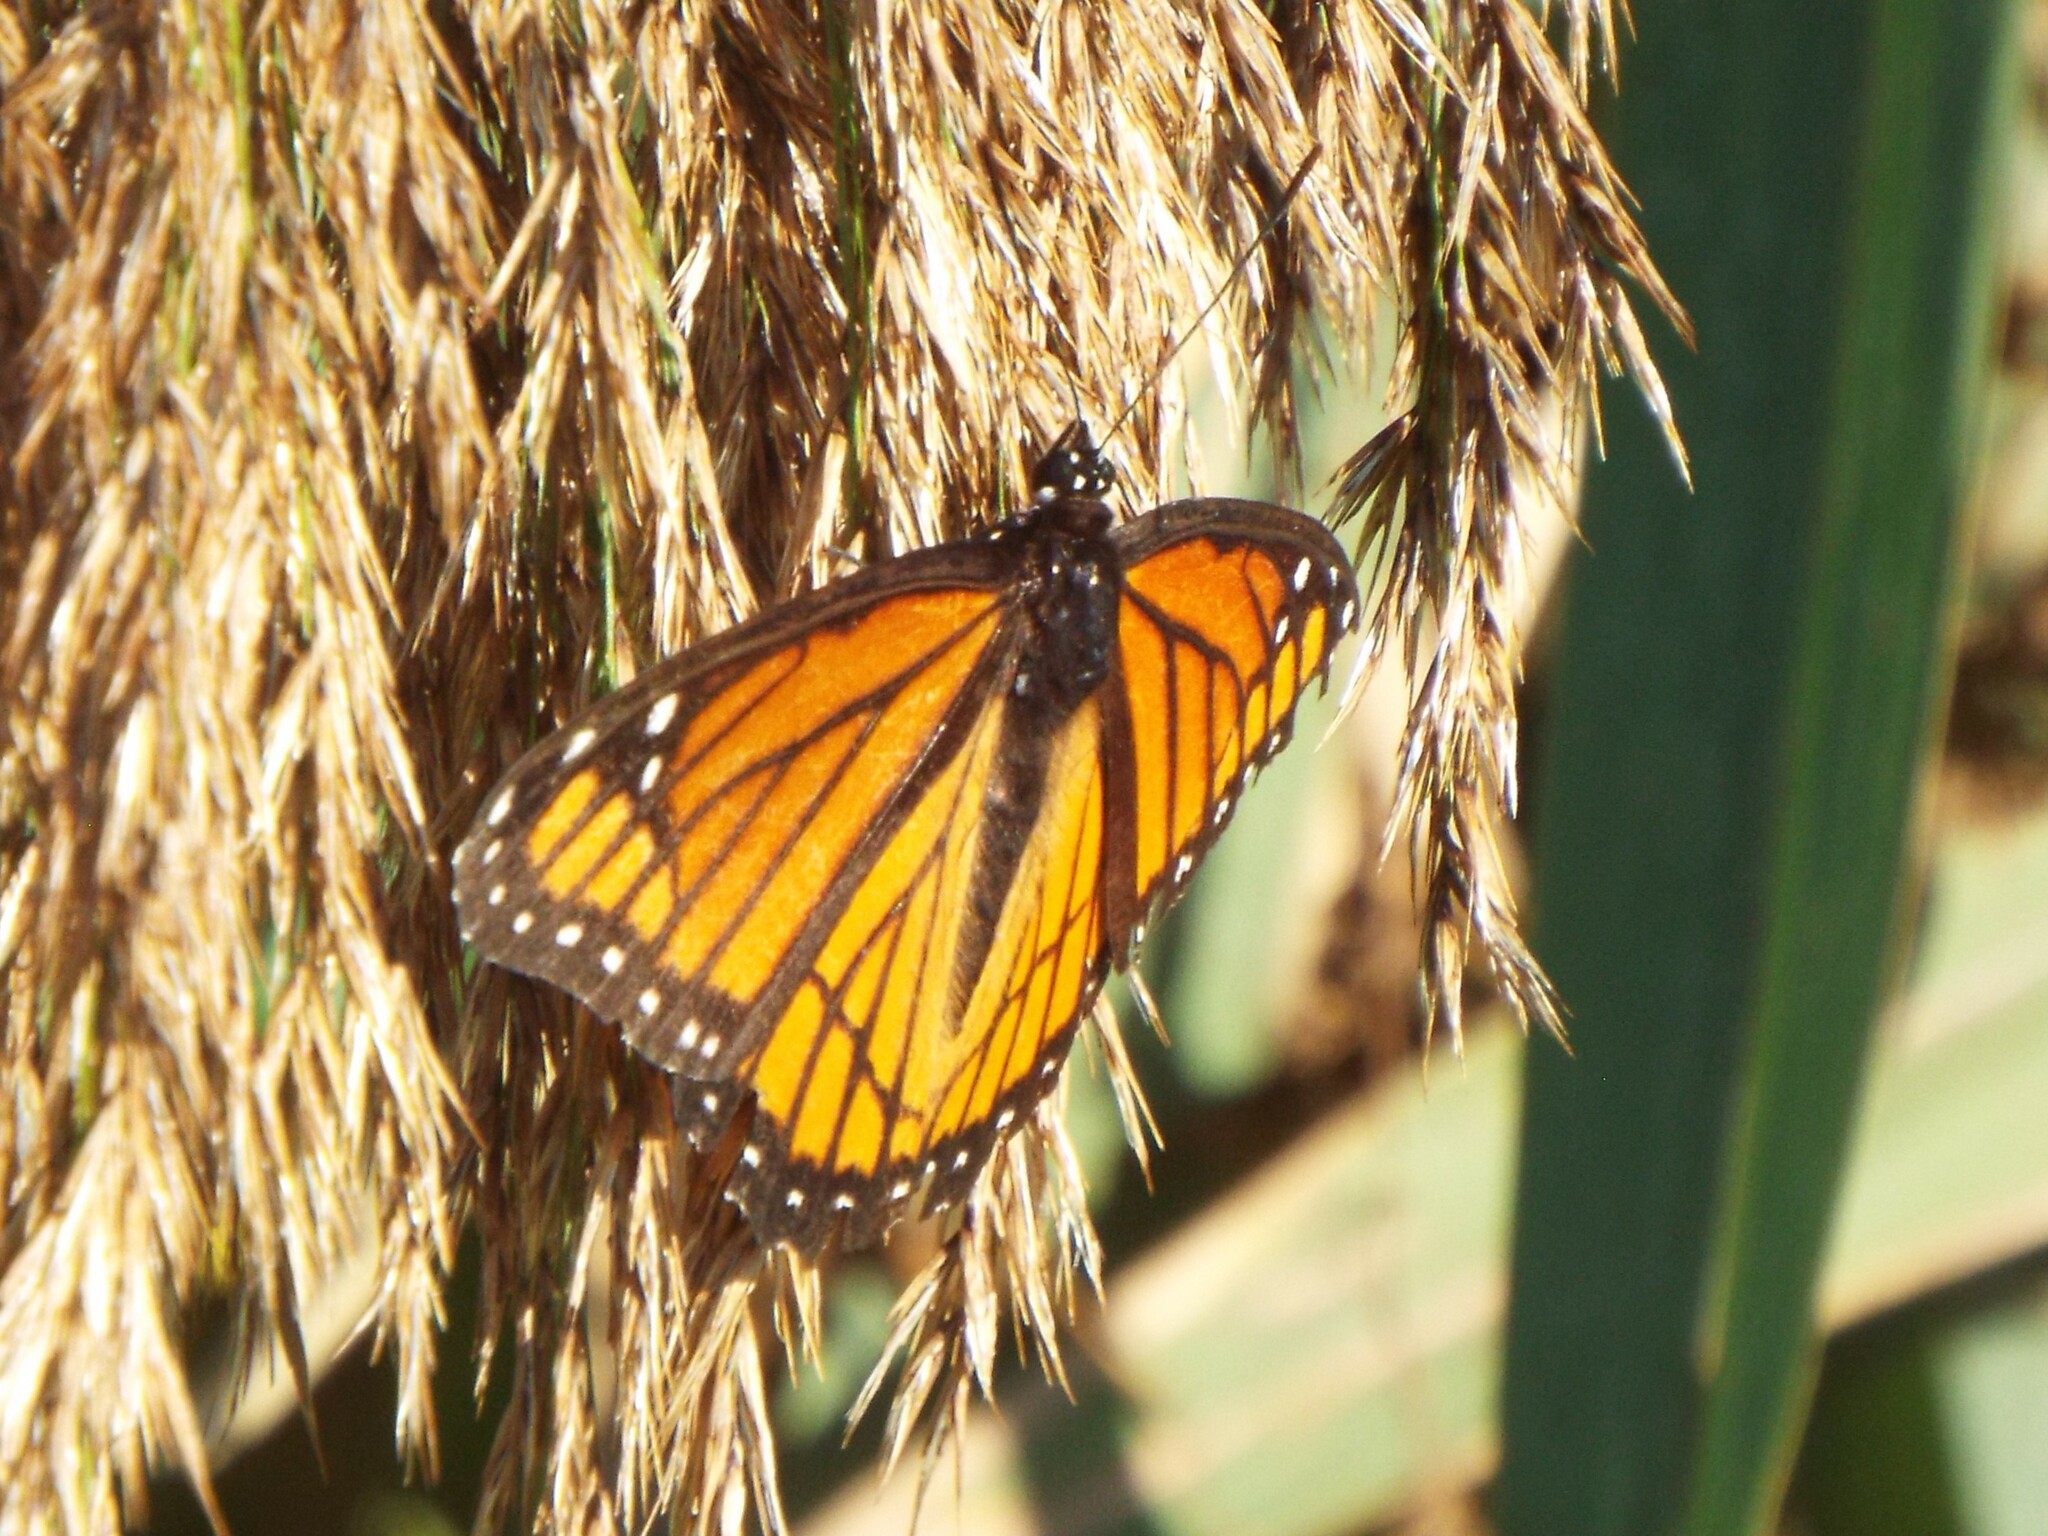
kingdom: Animalia
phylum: Arthropoda
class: Insecta
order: Lepidoptera
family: Nymphalidae
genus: Limenitis
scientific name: Limenitis archippus
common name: Viceroy
